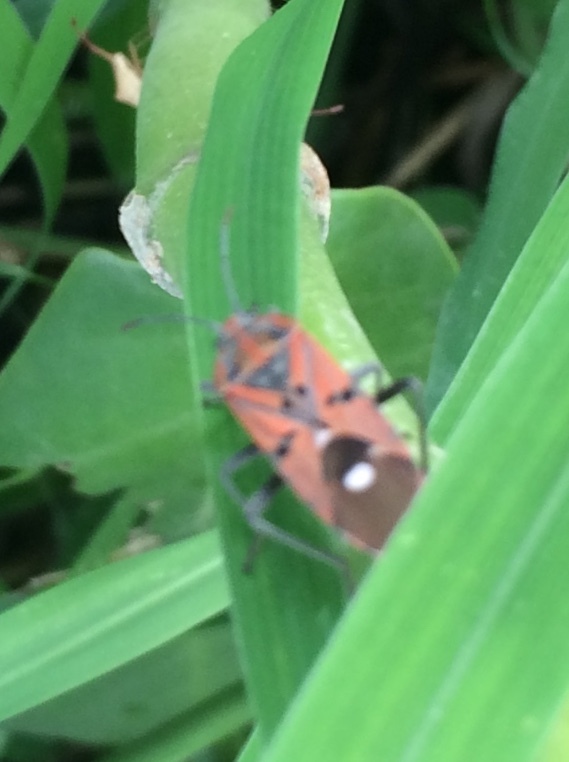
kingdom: Animalia
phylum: Arthropoda
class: Insecta
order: Hemiptera
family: Lygaeidae
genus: Spilostethus
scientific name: Spilostethus pandurus
